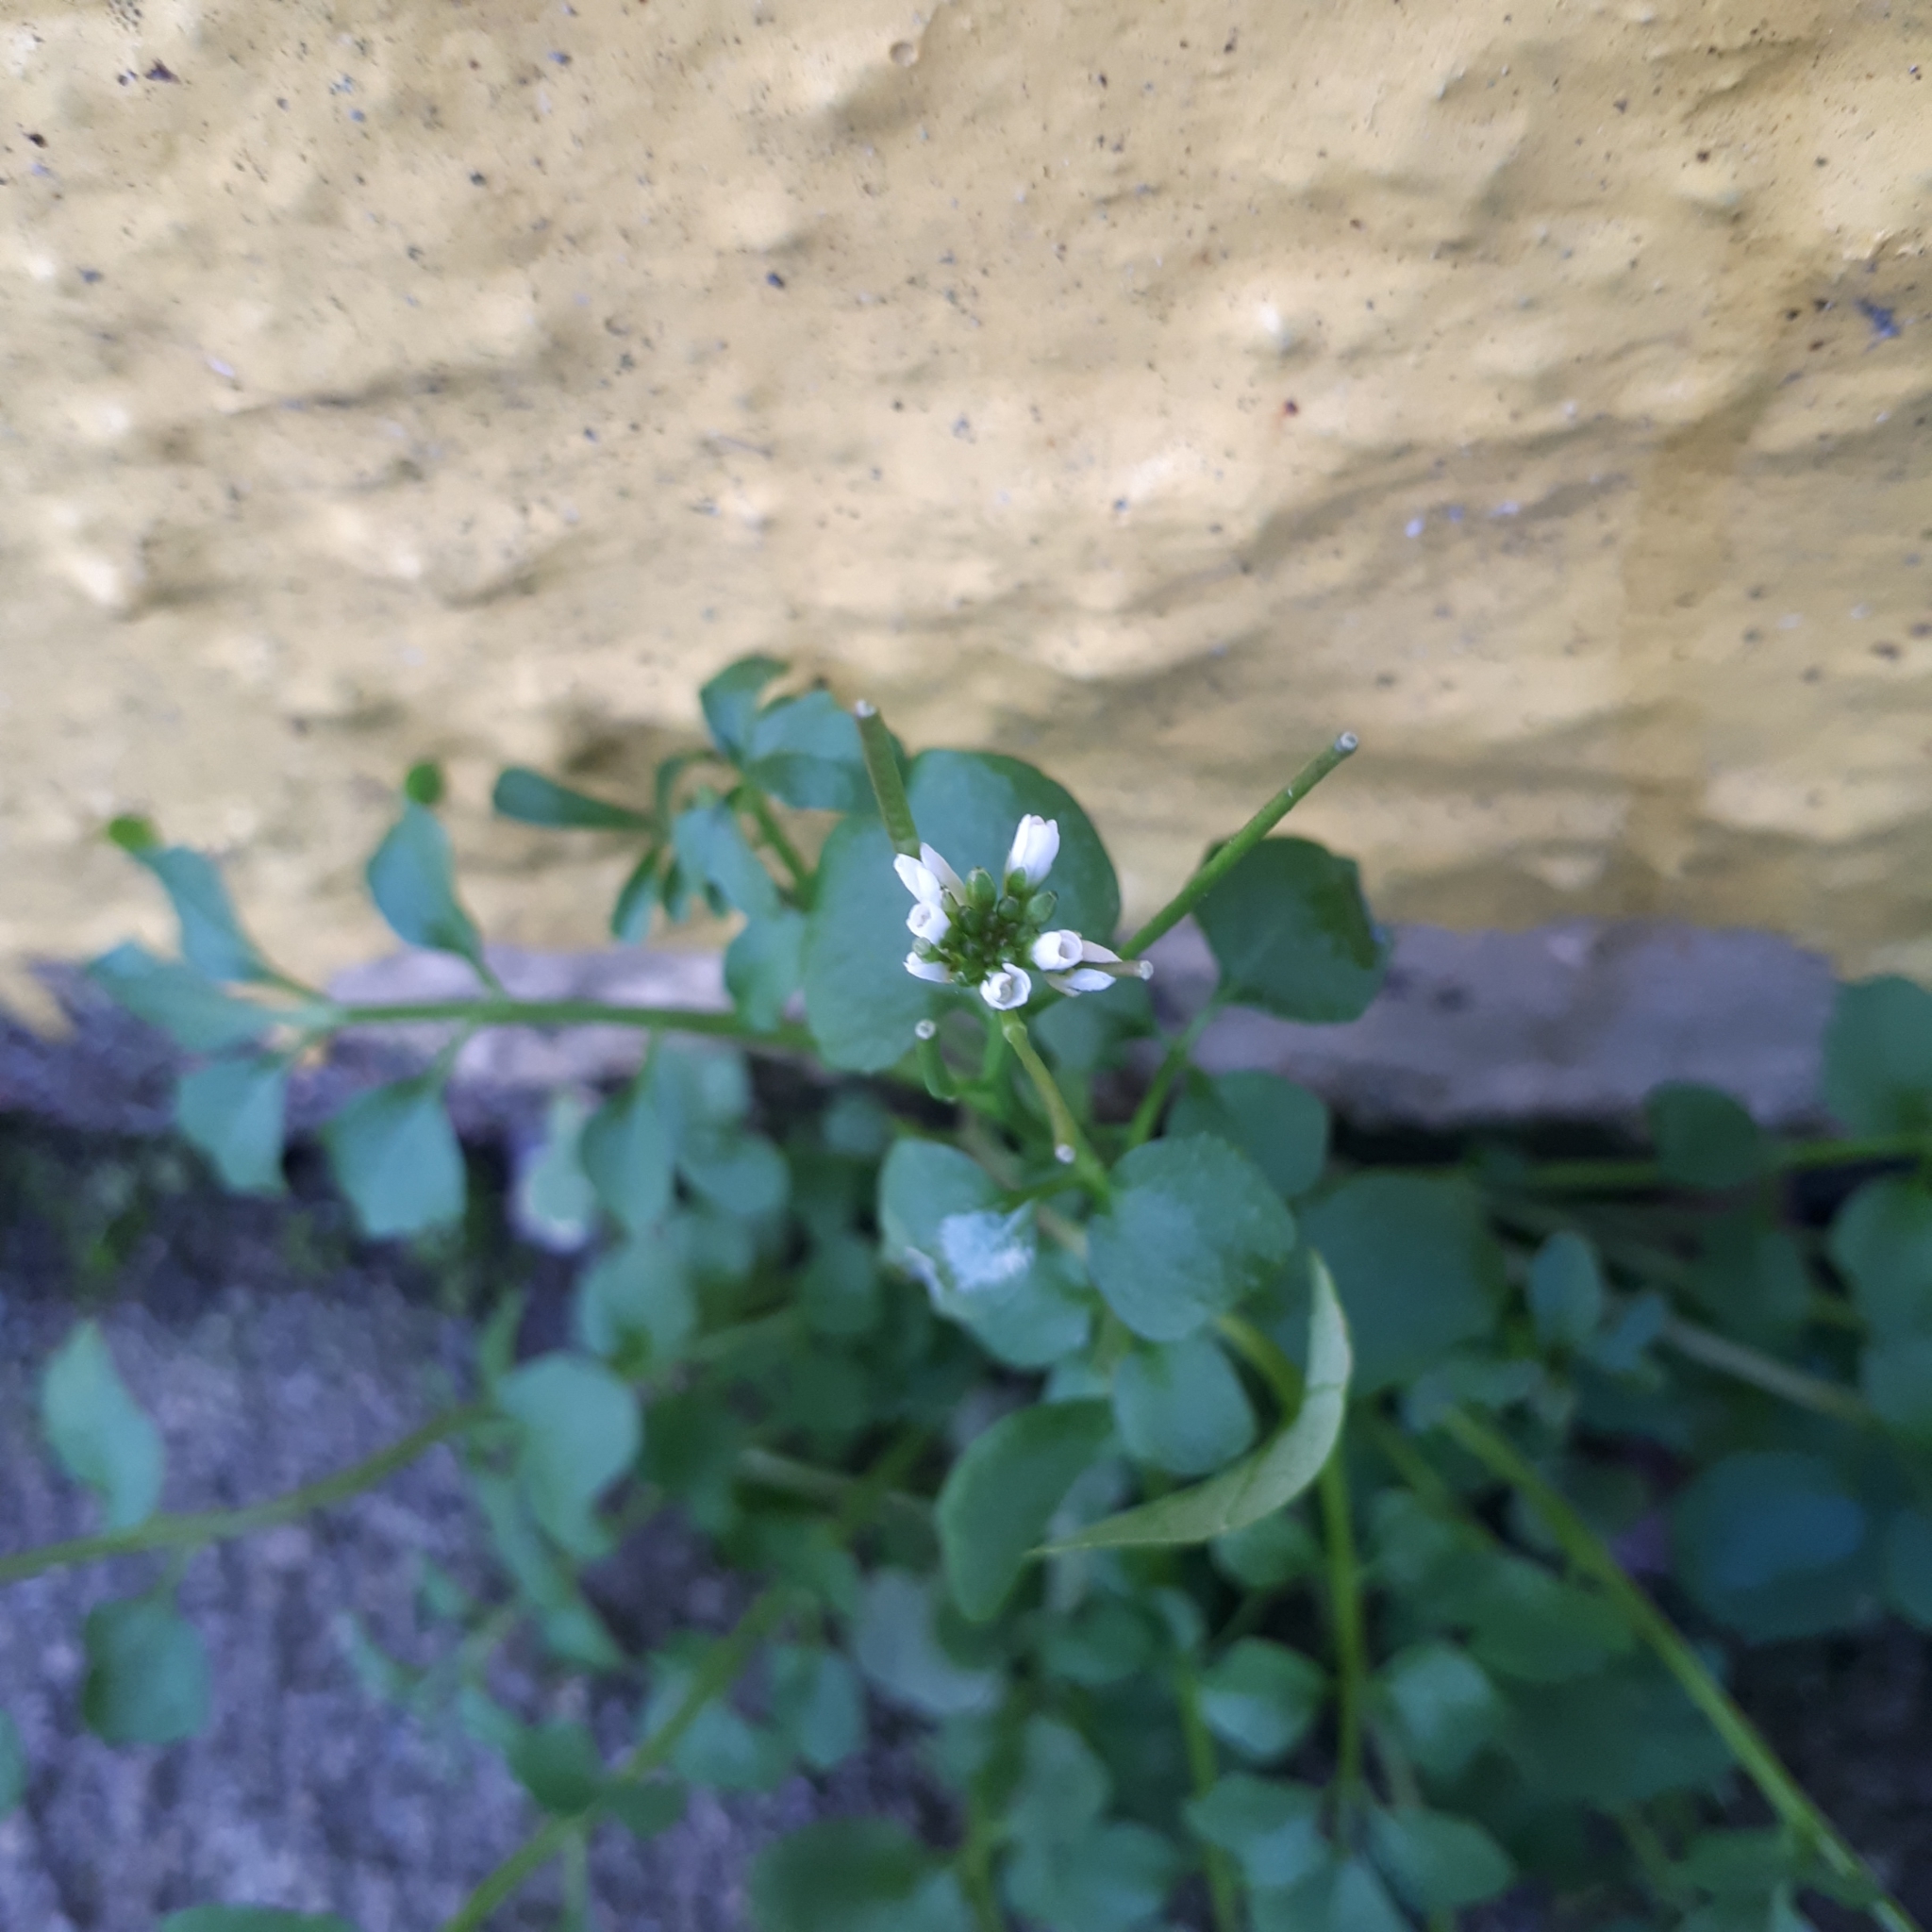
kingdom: Plantae
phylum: Tracheophyta
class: Magnoliopsida
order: Brassicales
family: Brassicaceae
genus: Cardamine
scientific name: Cardamine hirsuta
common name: Hairy bittercress
